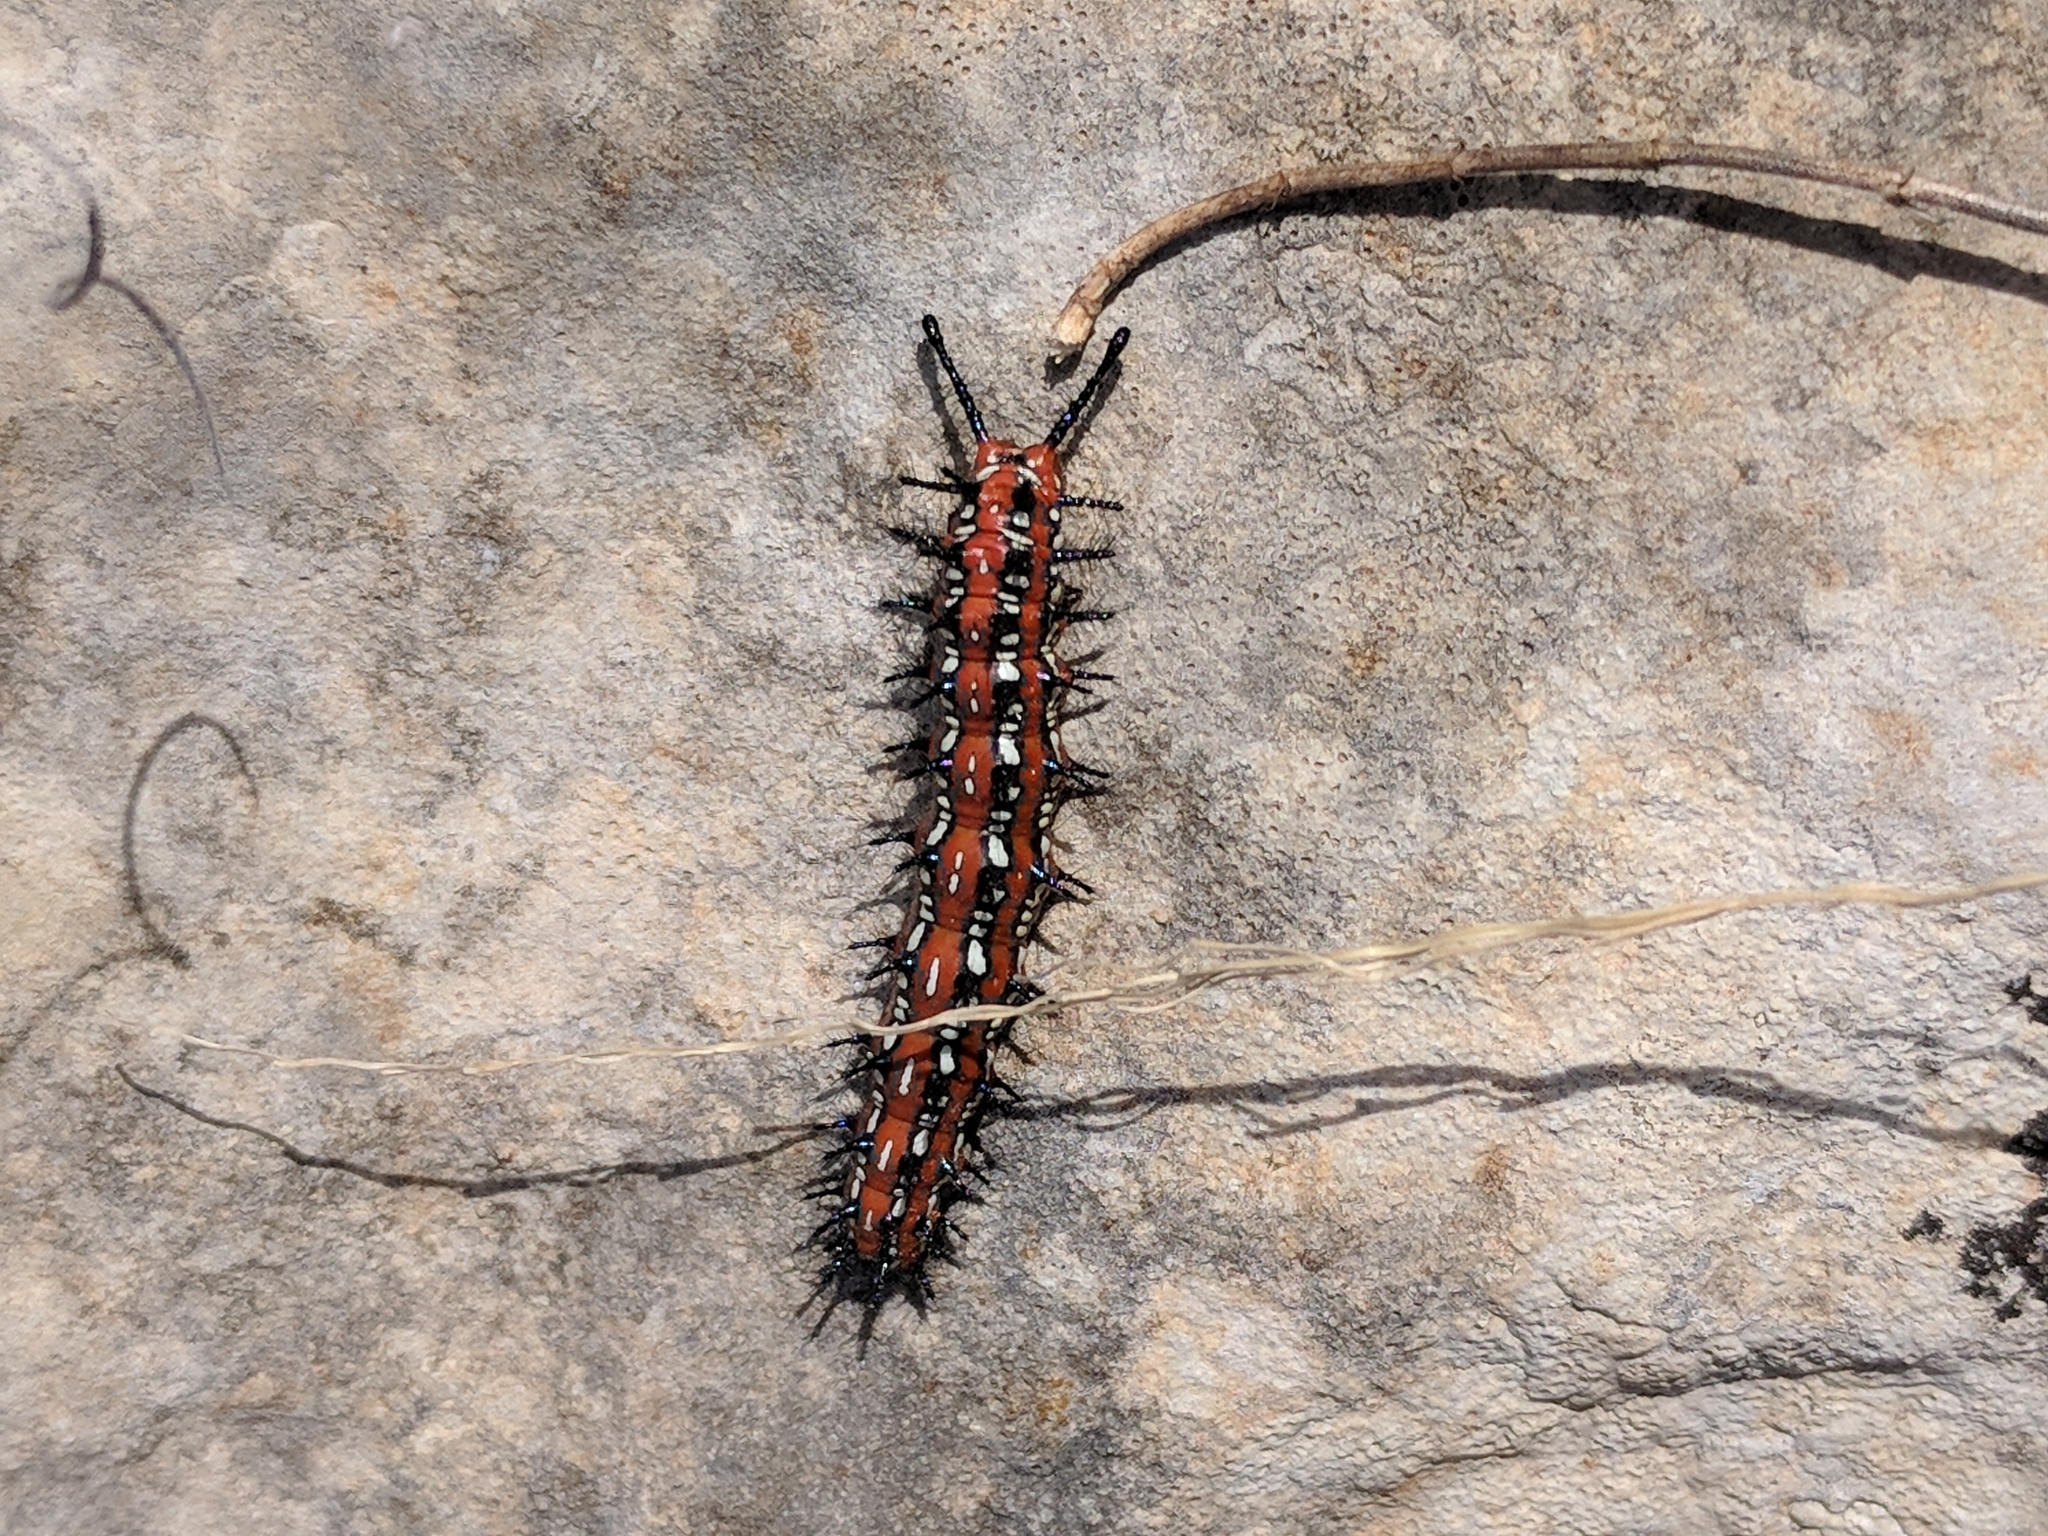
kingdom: Animalia
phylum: Arthropoda
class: Insecta
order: Lepidoptera
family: Nymphalidae
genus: Euptoieta
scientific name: Euptoieta claudia
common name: Variegated fritillary
